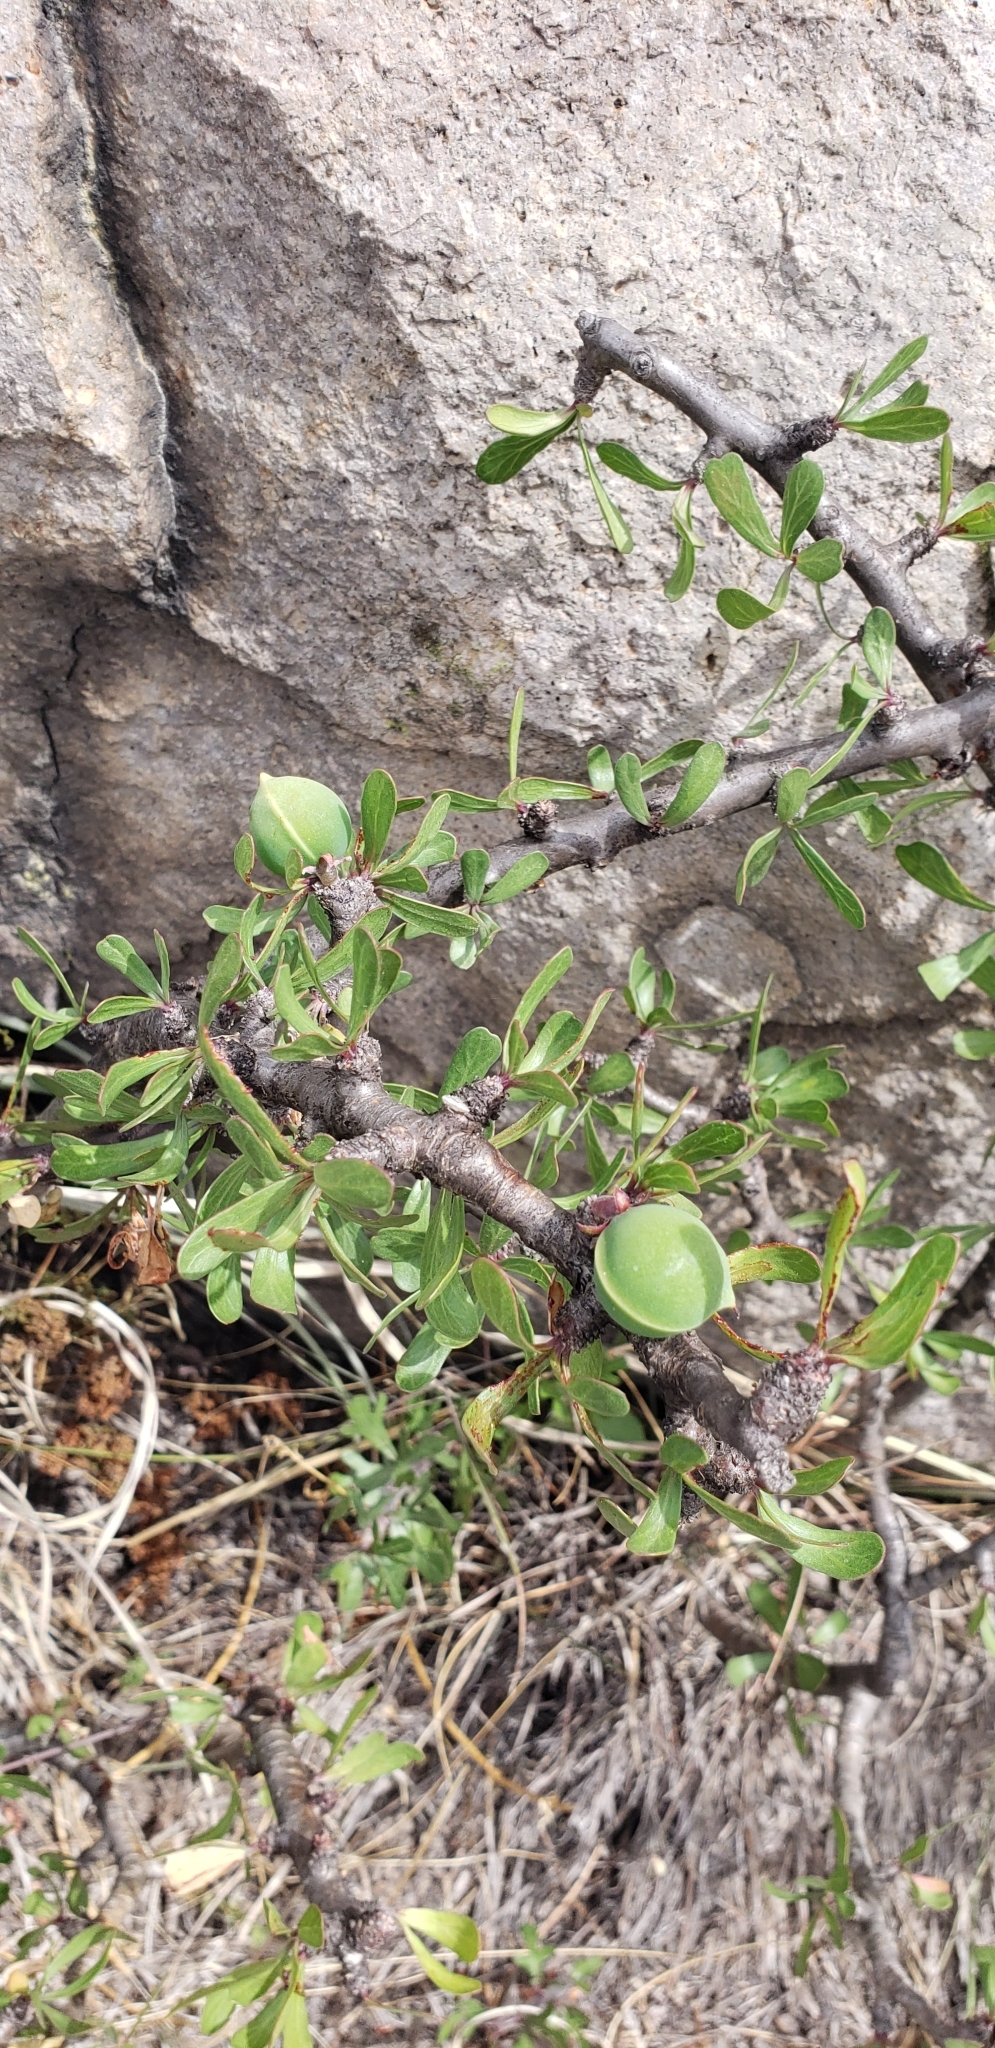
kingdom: Plantae
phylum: Tracheophyta
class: Magnoliopsida
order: Malpighiales
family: Euphorbiaceae
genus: Jatropha
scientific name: Jatropha dioica
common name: Leatherstem
